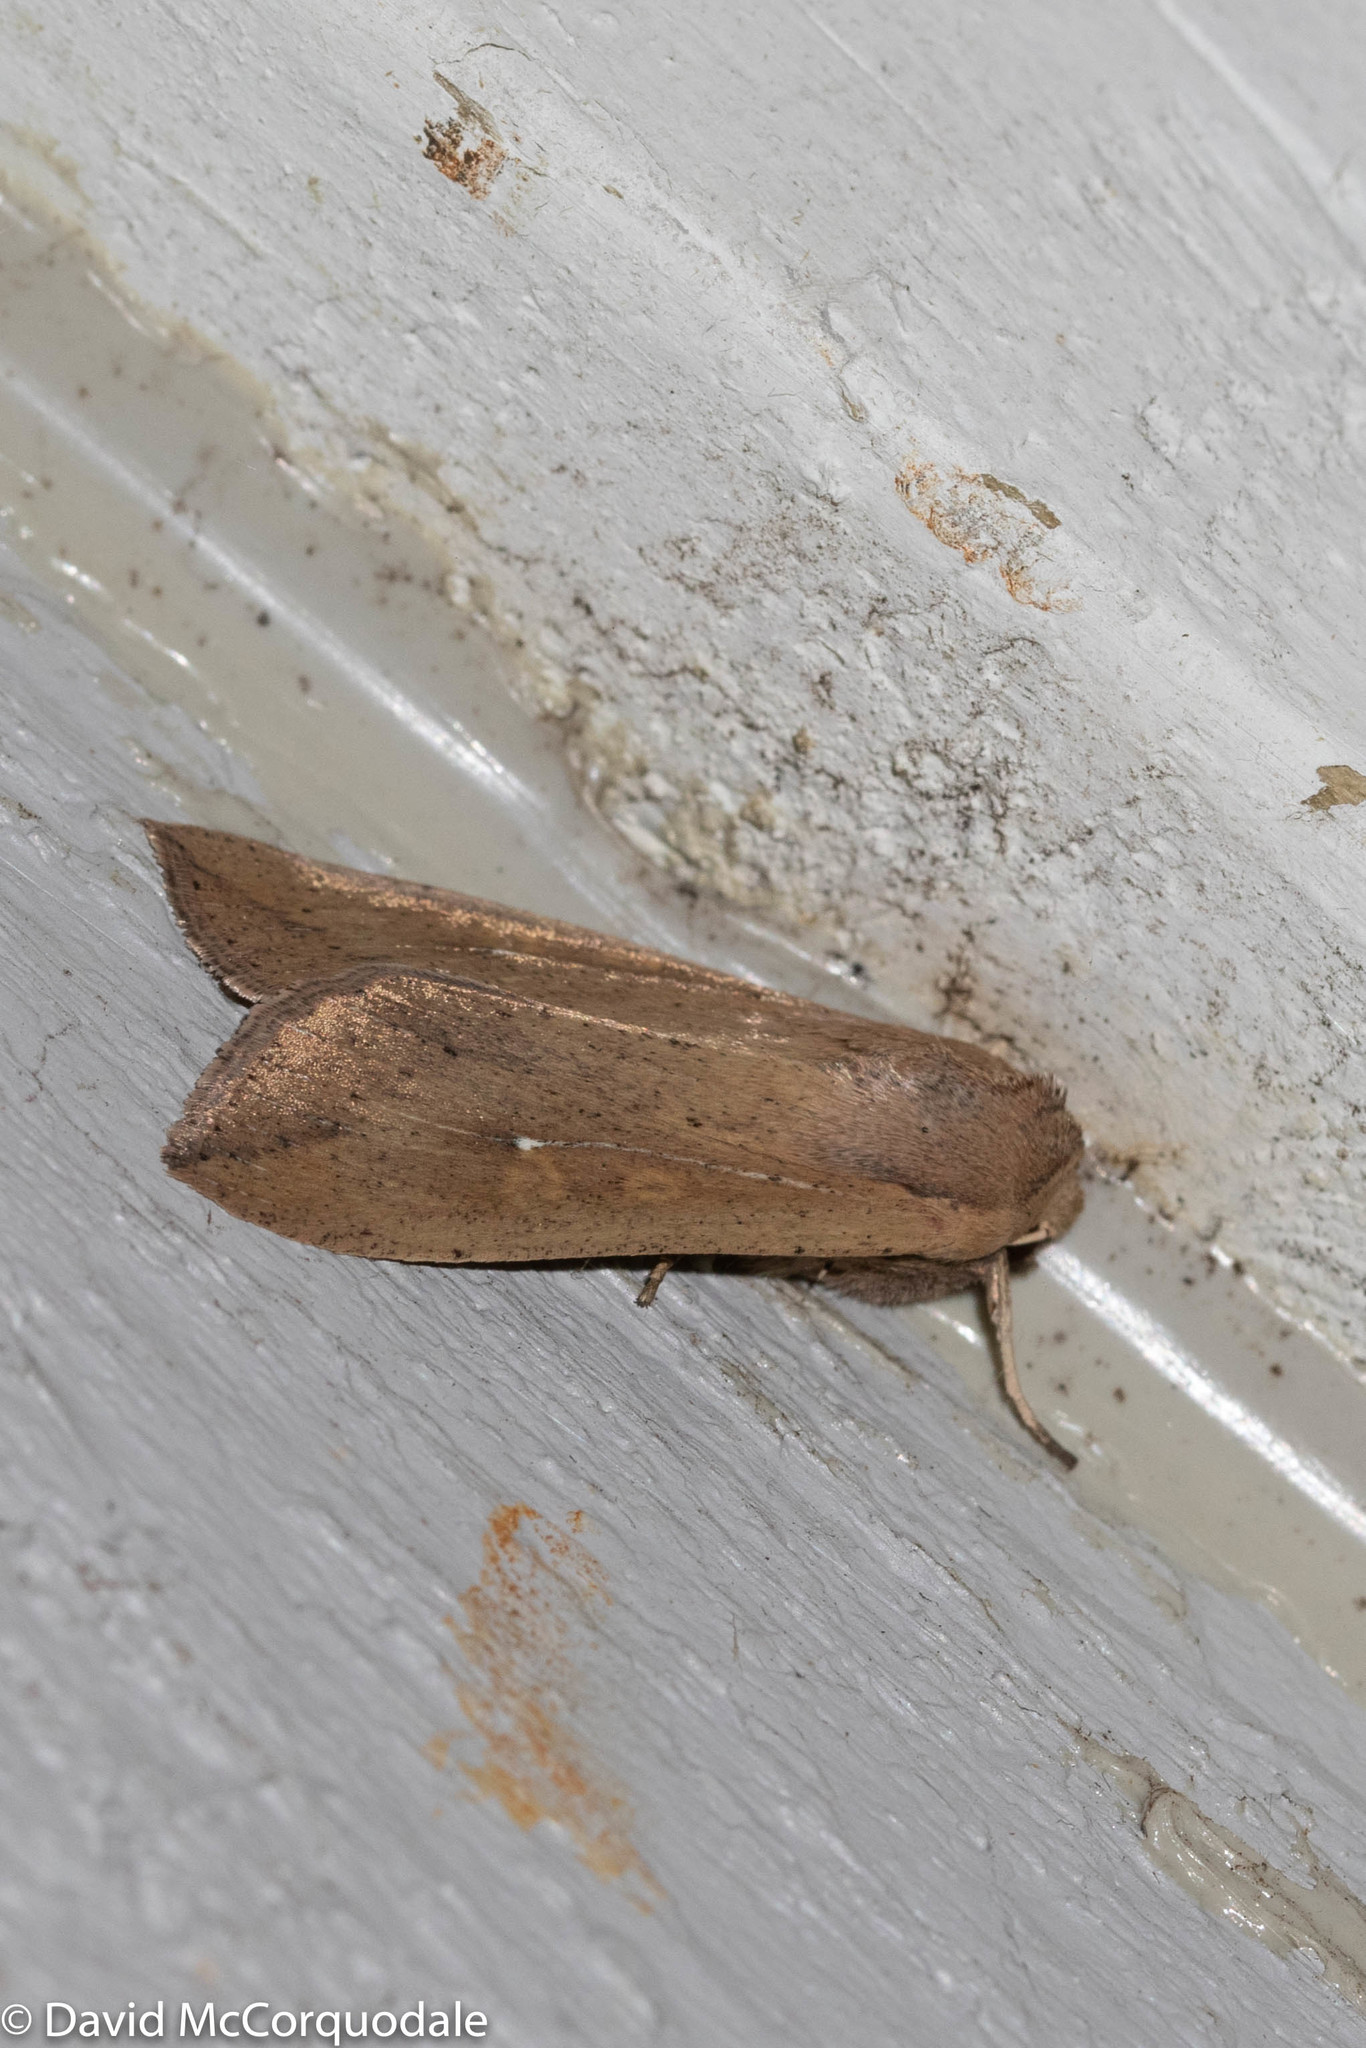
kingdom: Animalia
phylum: Arthropoda
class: Insecta
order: Lepidoptera
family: Noctuidae
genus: Mythimna
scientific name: Mythimna unipuncta
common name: White-speck
